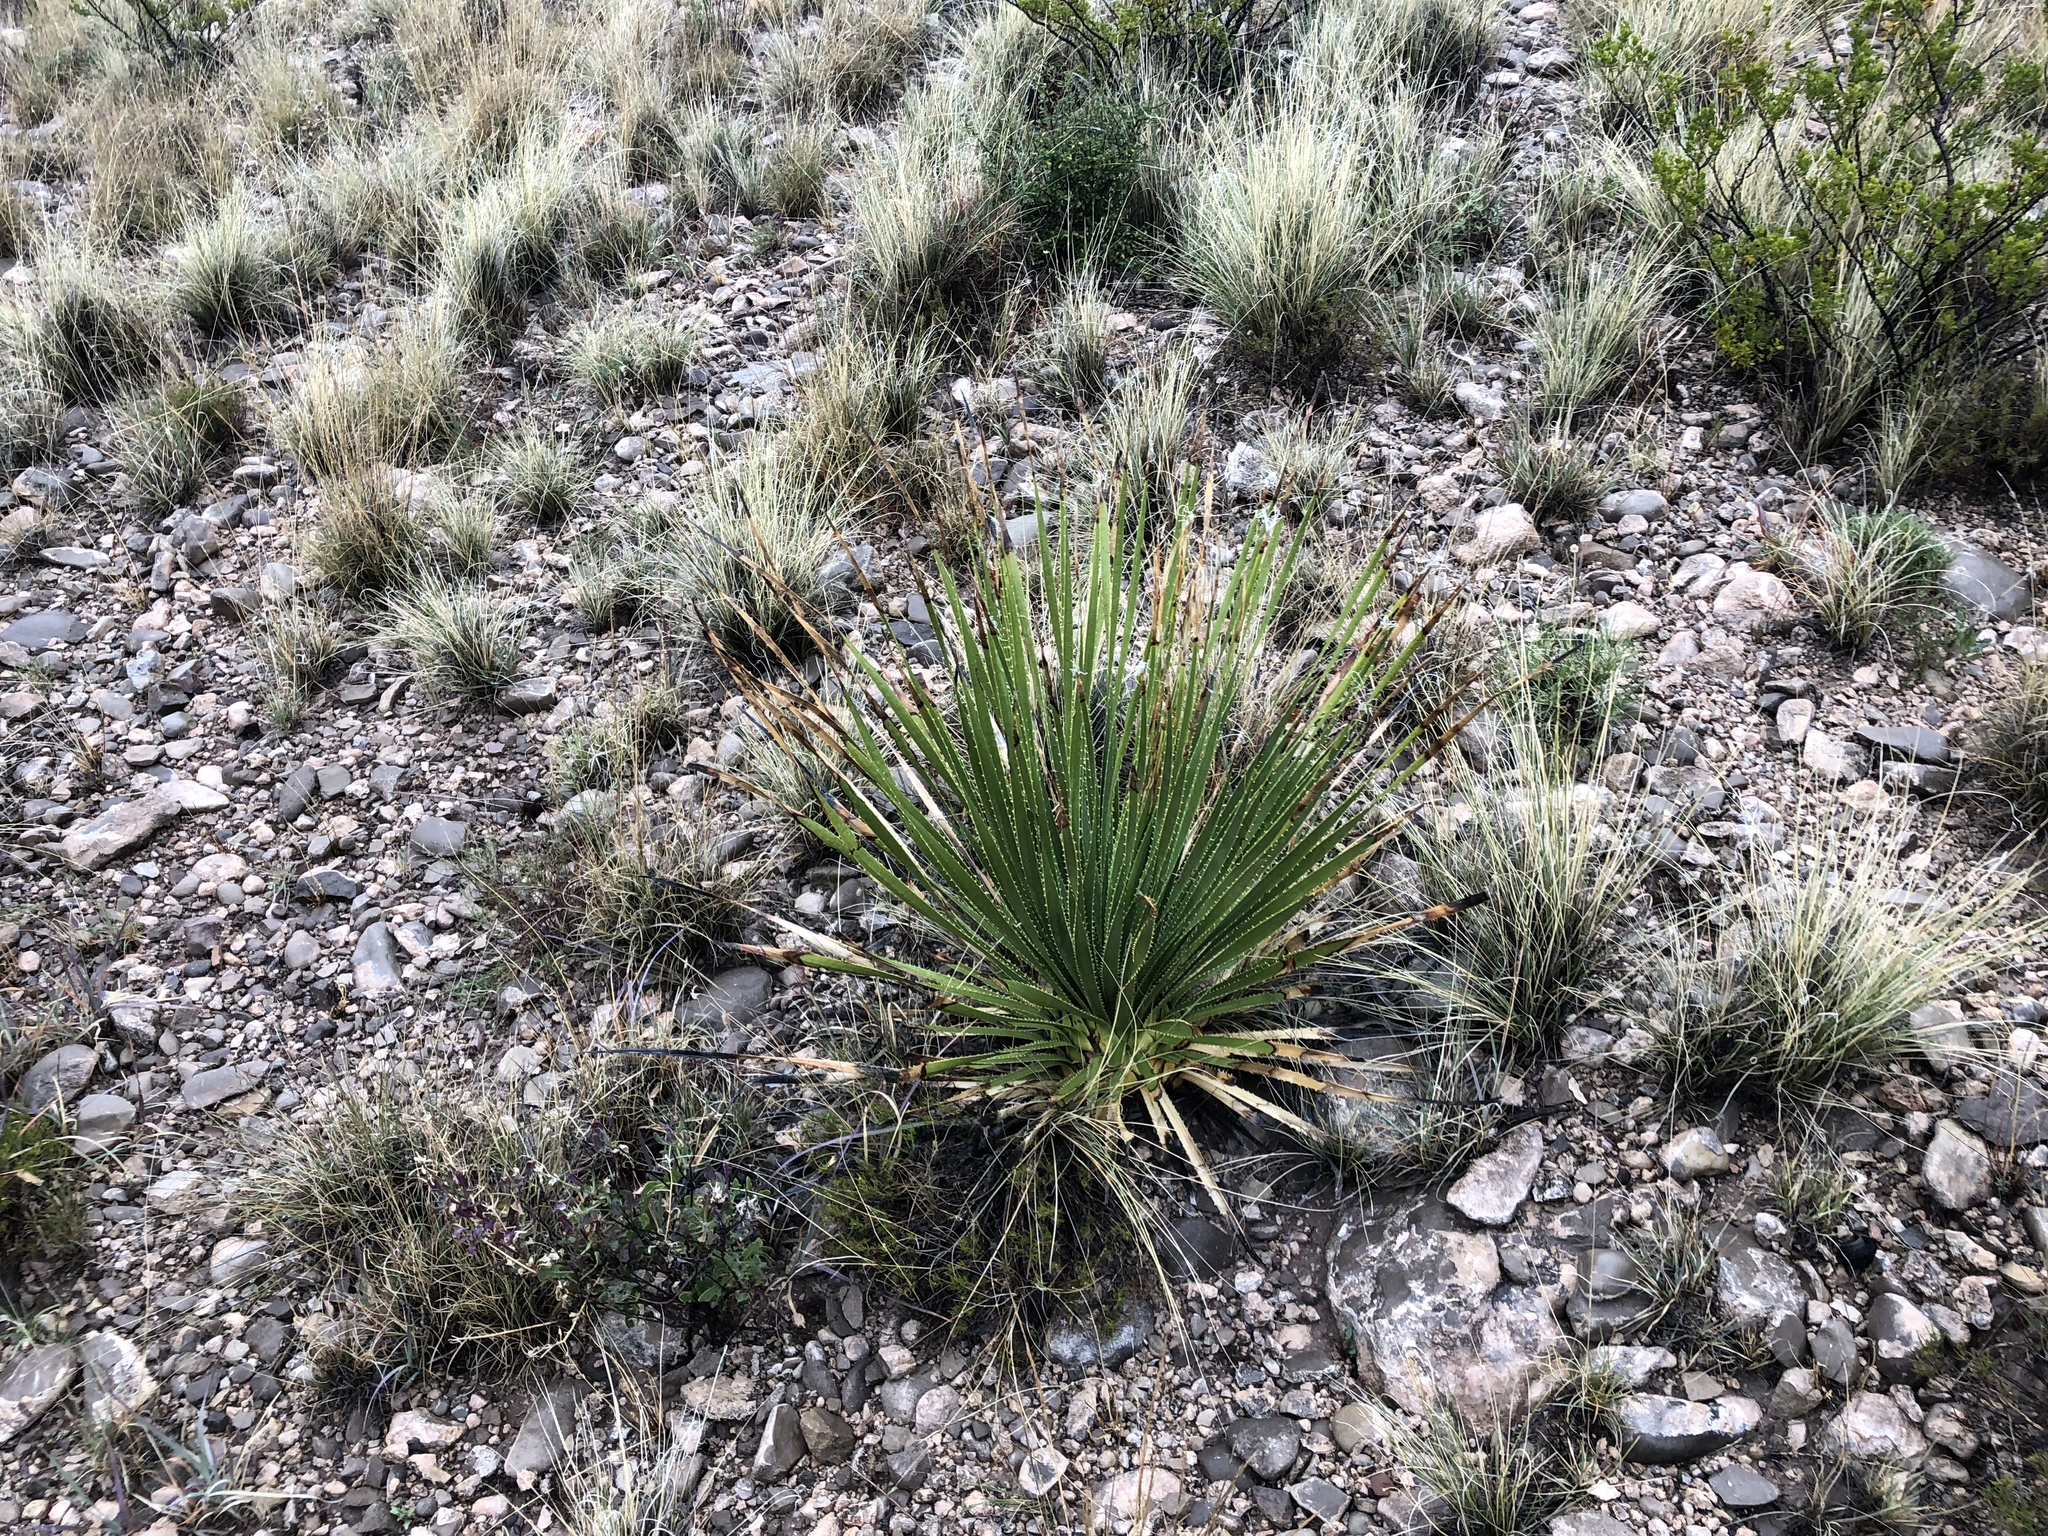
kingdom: Plantae
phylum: Tracheophyta
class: Liliopsida
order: Asparagales
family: Asparagaceae
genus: Dasylirion
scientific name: Dasylirion wheeleri
